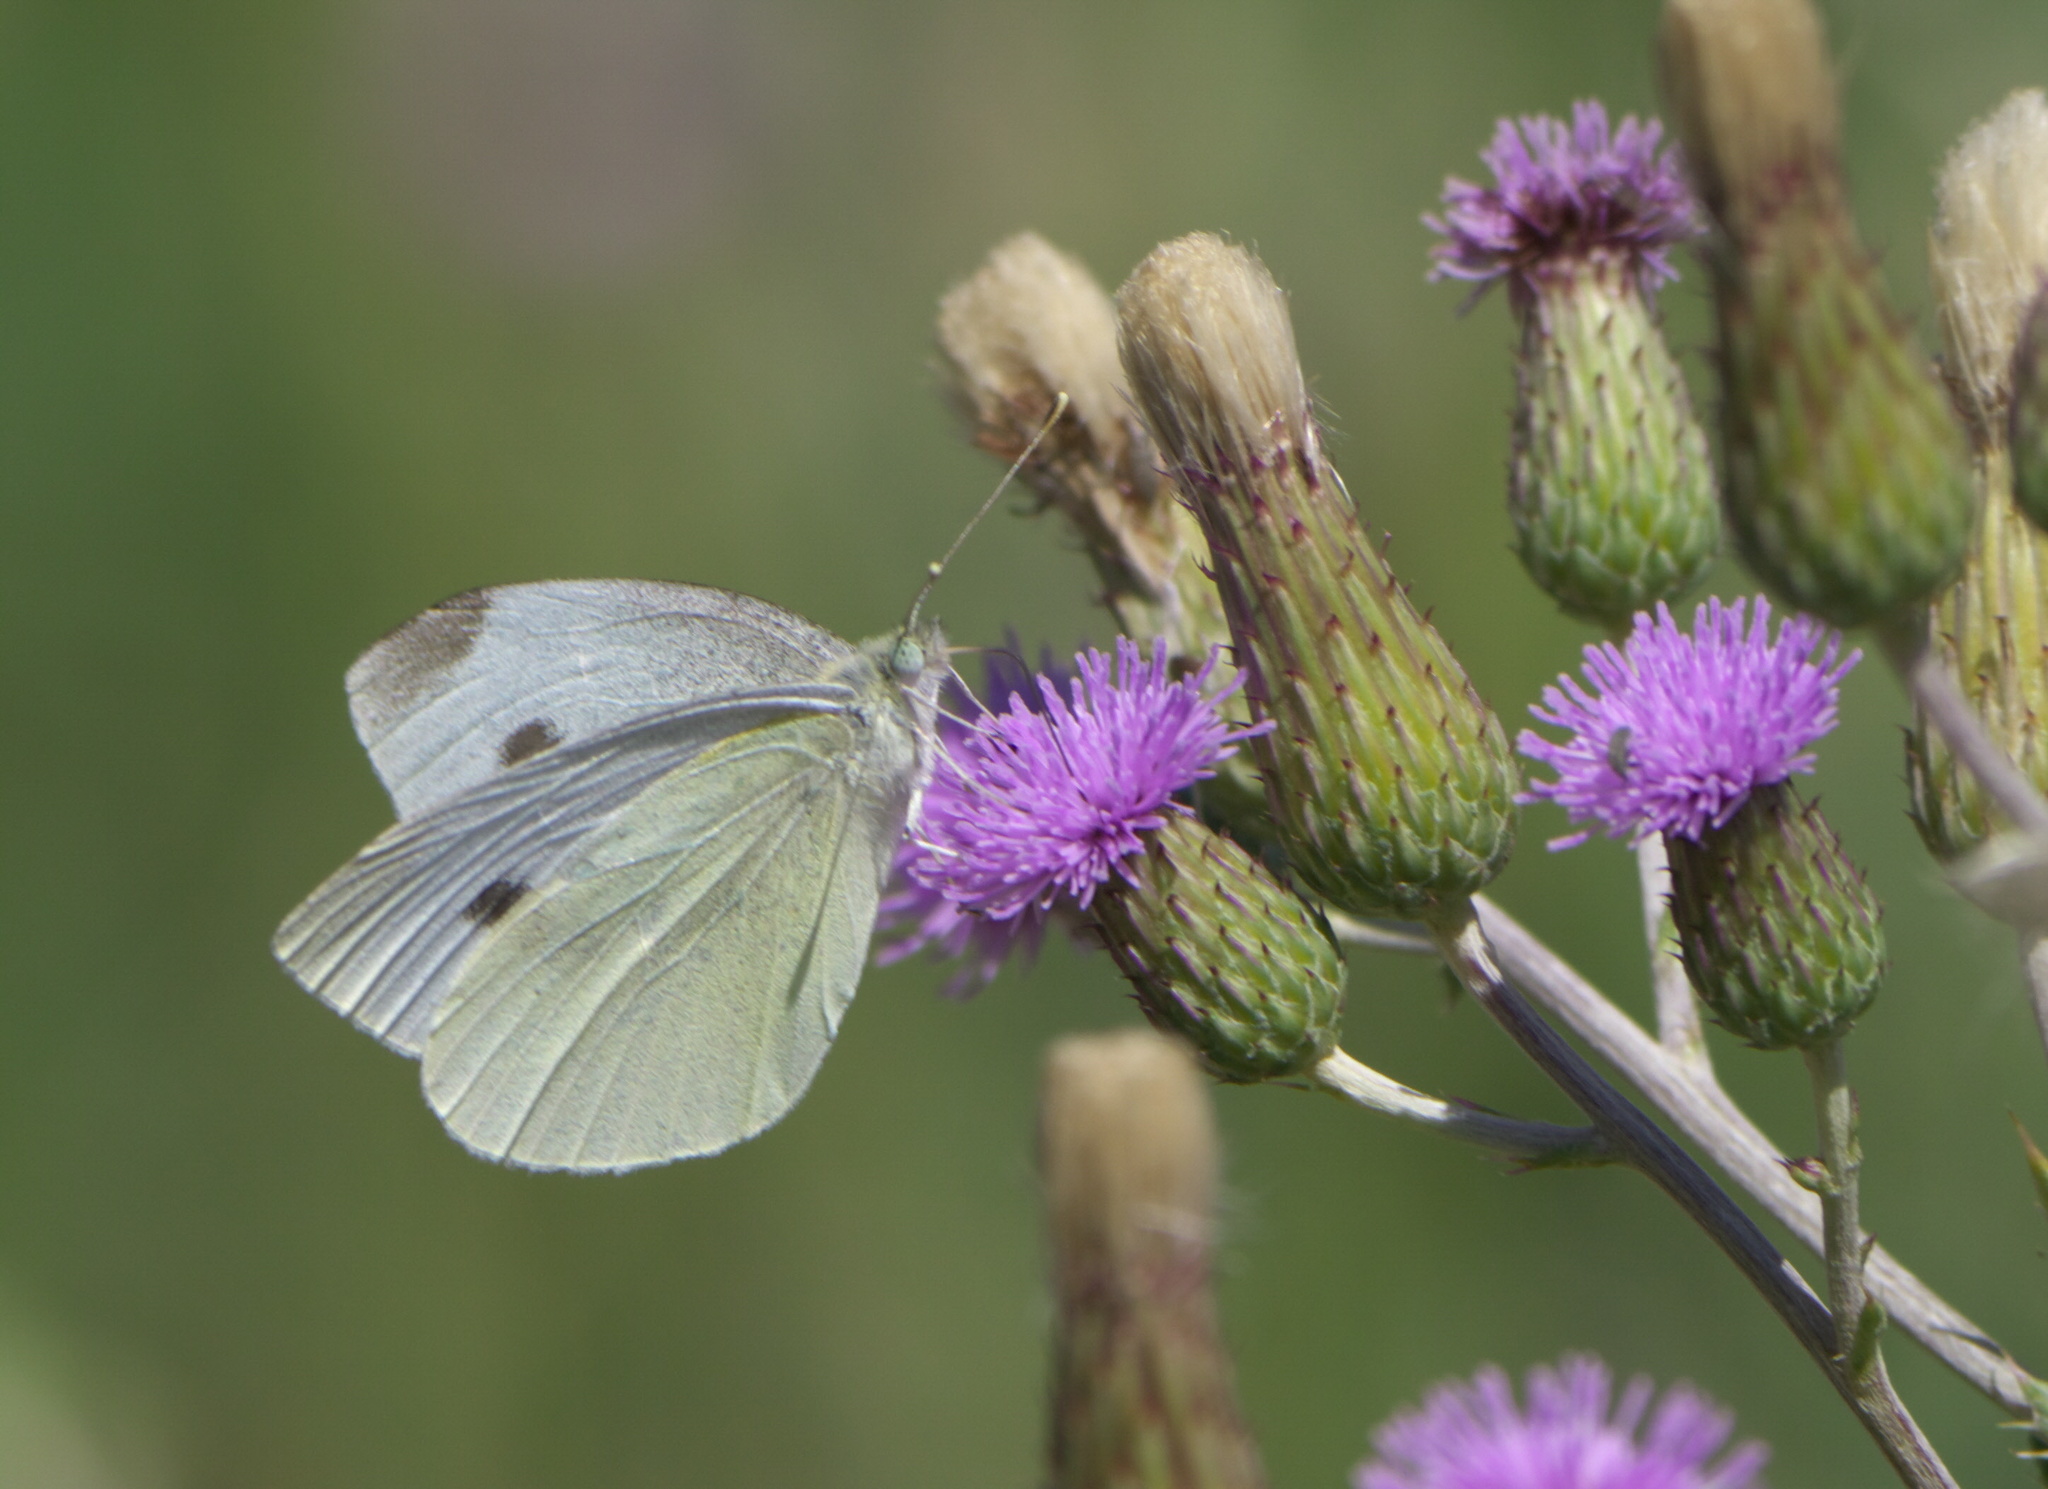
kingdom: Animalia
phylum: Arthropoda
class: Insecta
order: Lepidoptera
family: Pieridae
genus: Pieris
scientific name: Pieris rapae
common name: Small white
